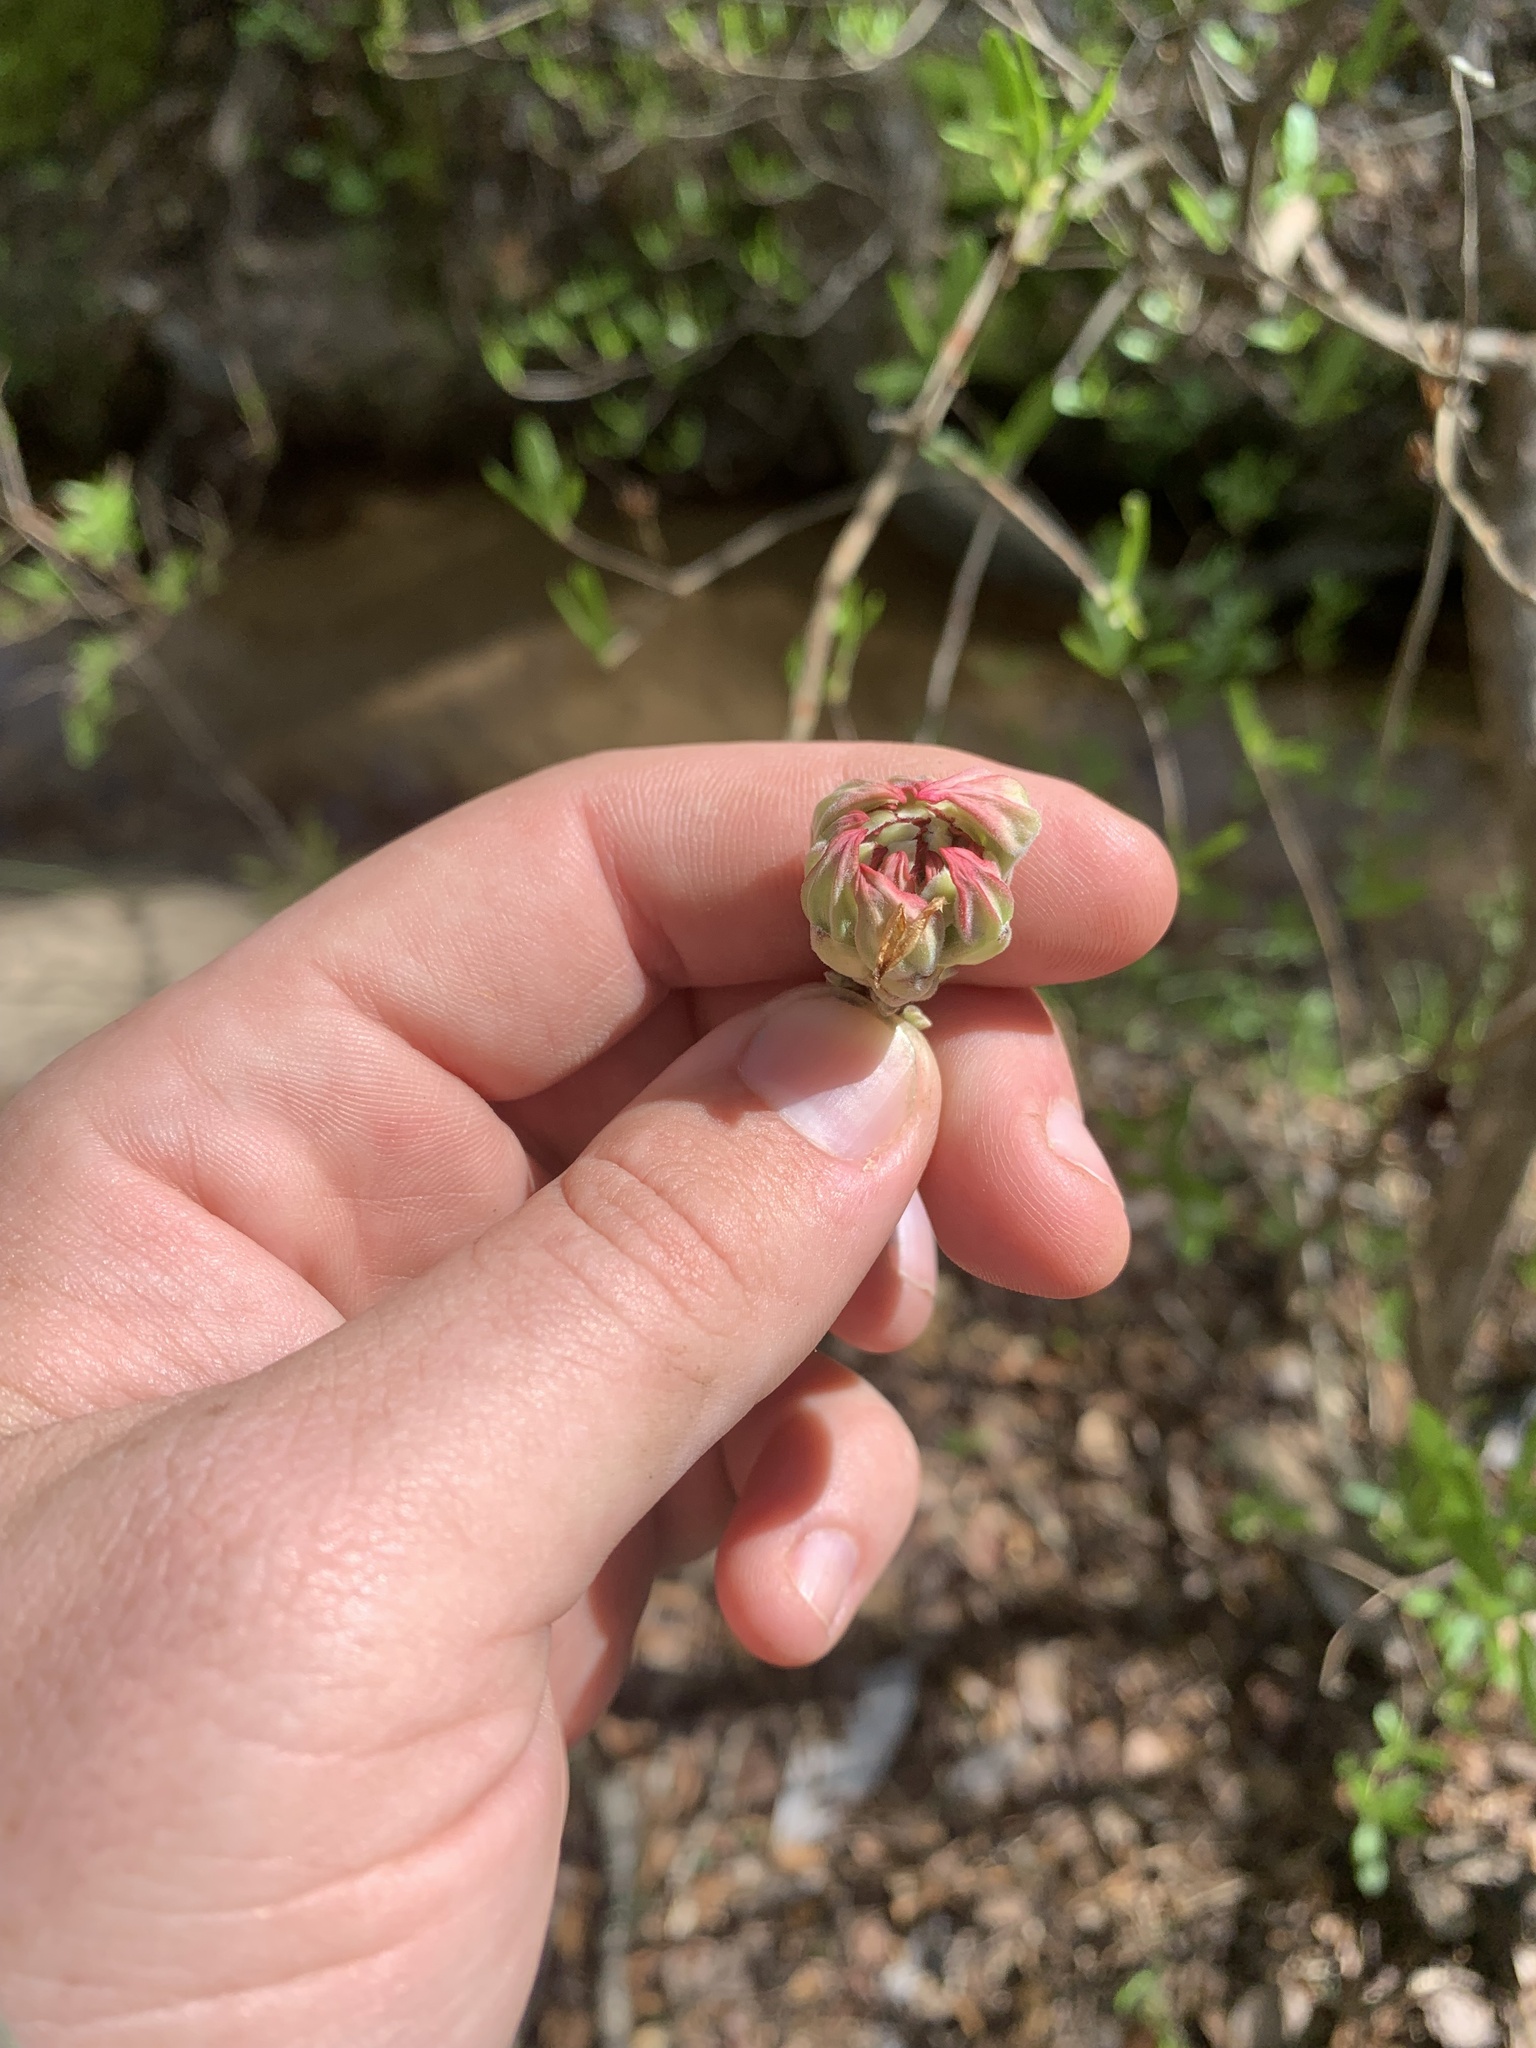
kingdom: Plantae
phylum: Tracheophyta
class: Magnoliopsida
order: Ericales
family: Ericaceae
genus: Rhododendron
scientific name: Rhododendron canescens
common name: Mountain azalea
